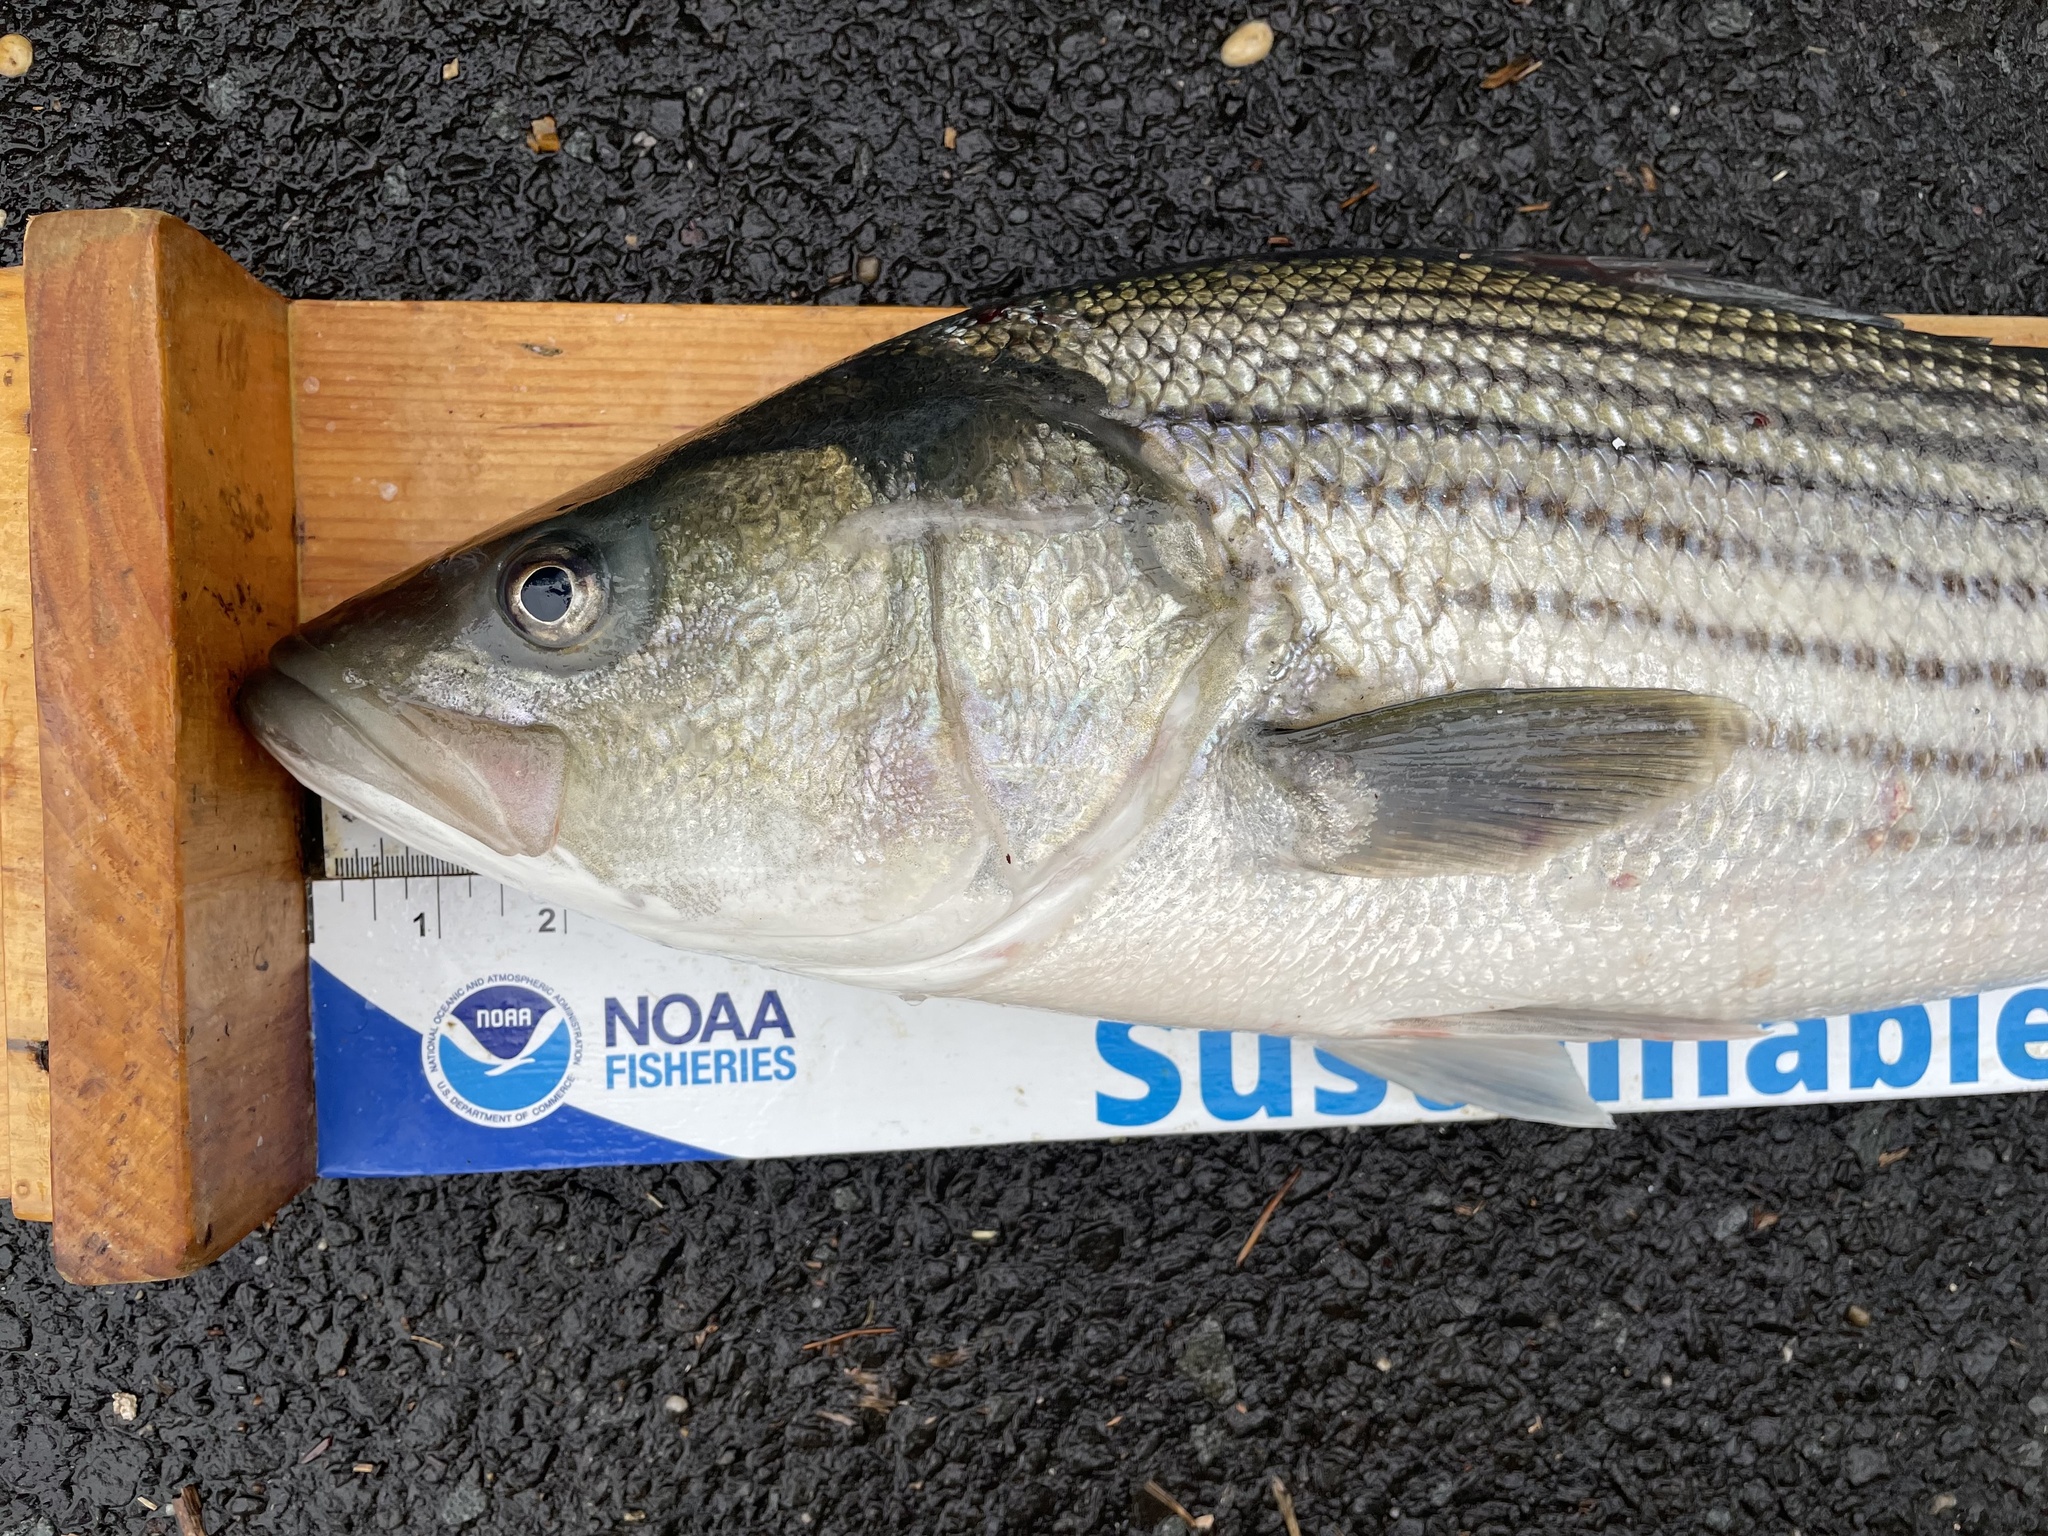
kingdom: Animalia
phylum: Chordata
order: Perciformes
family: Moronidae
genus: Morone
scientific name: Morone saxatilis
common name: Striped bass
